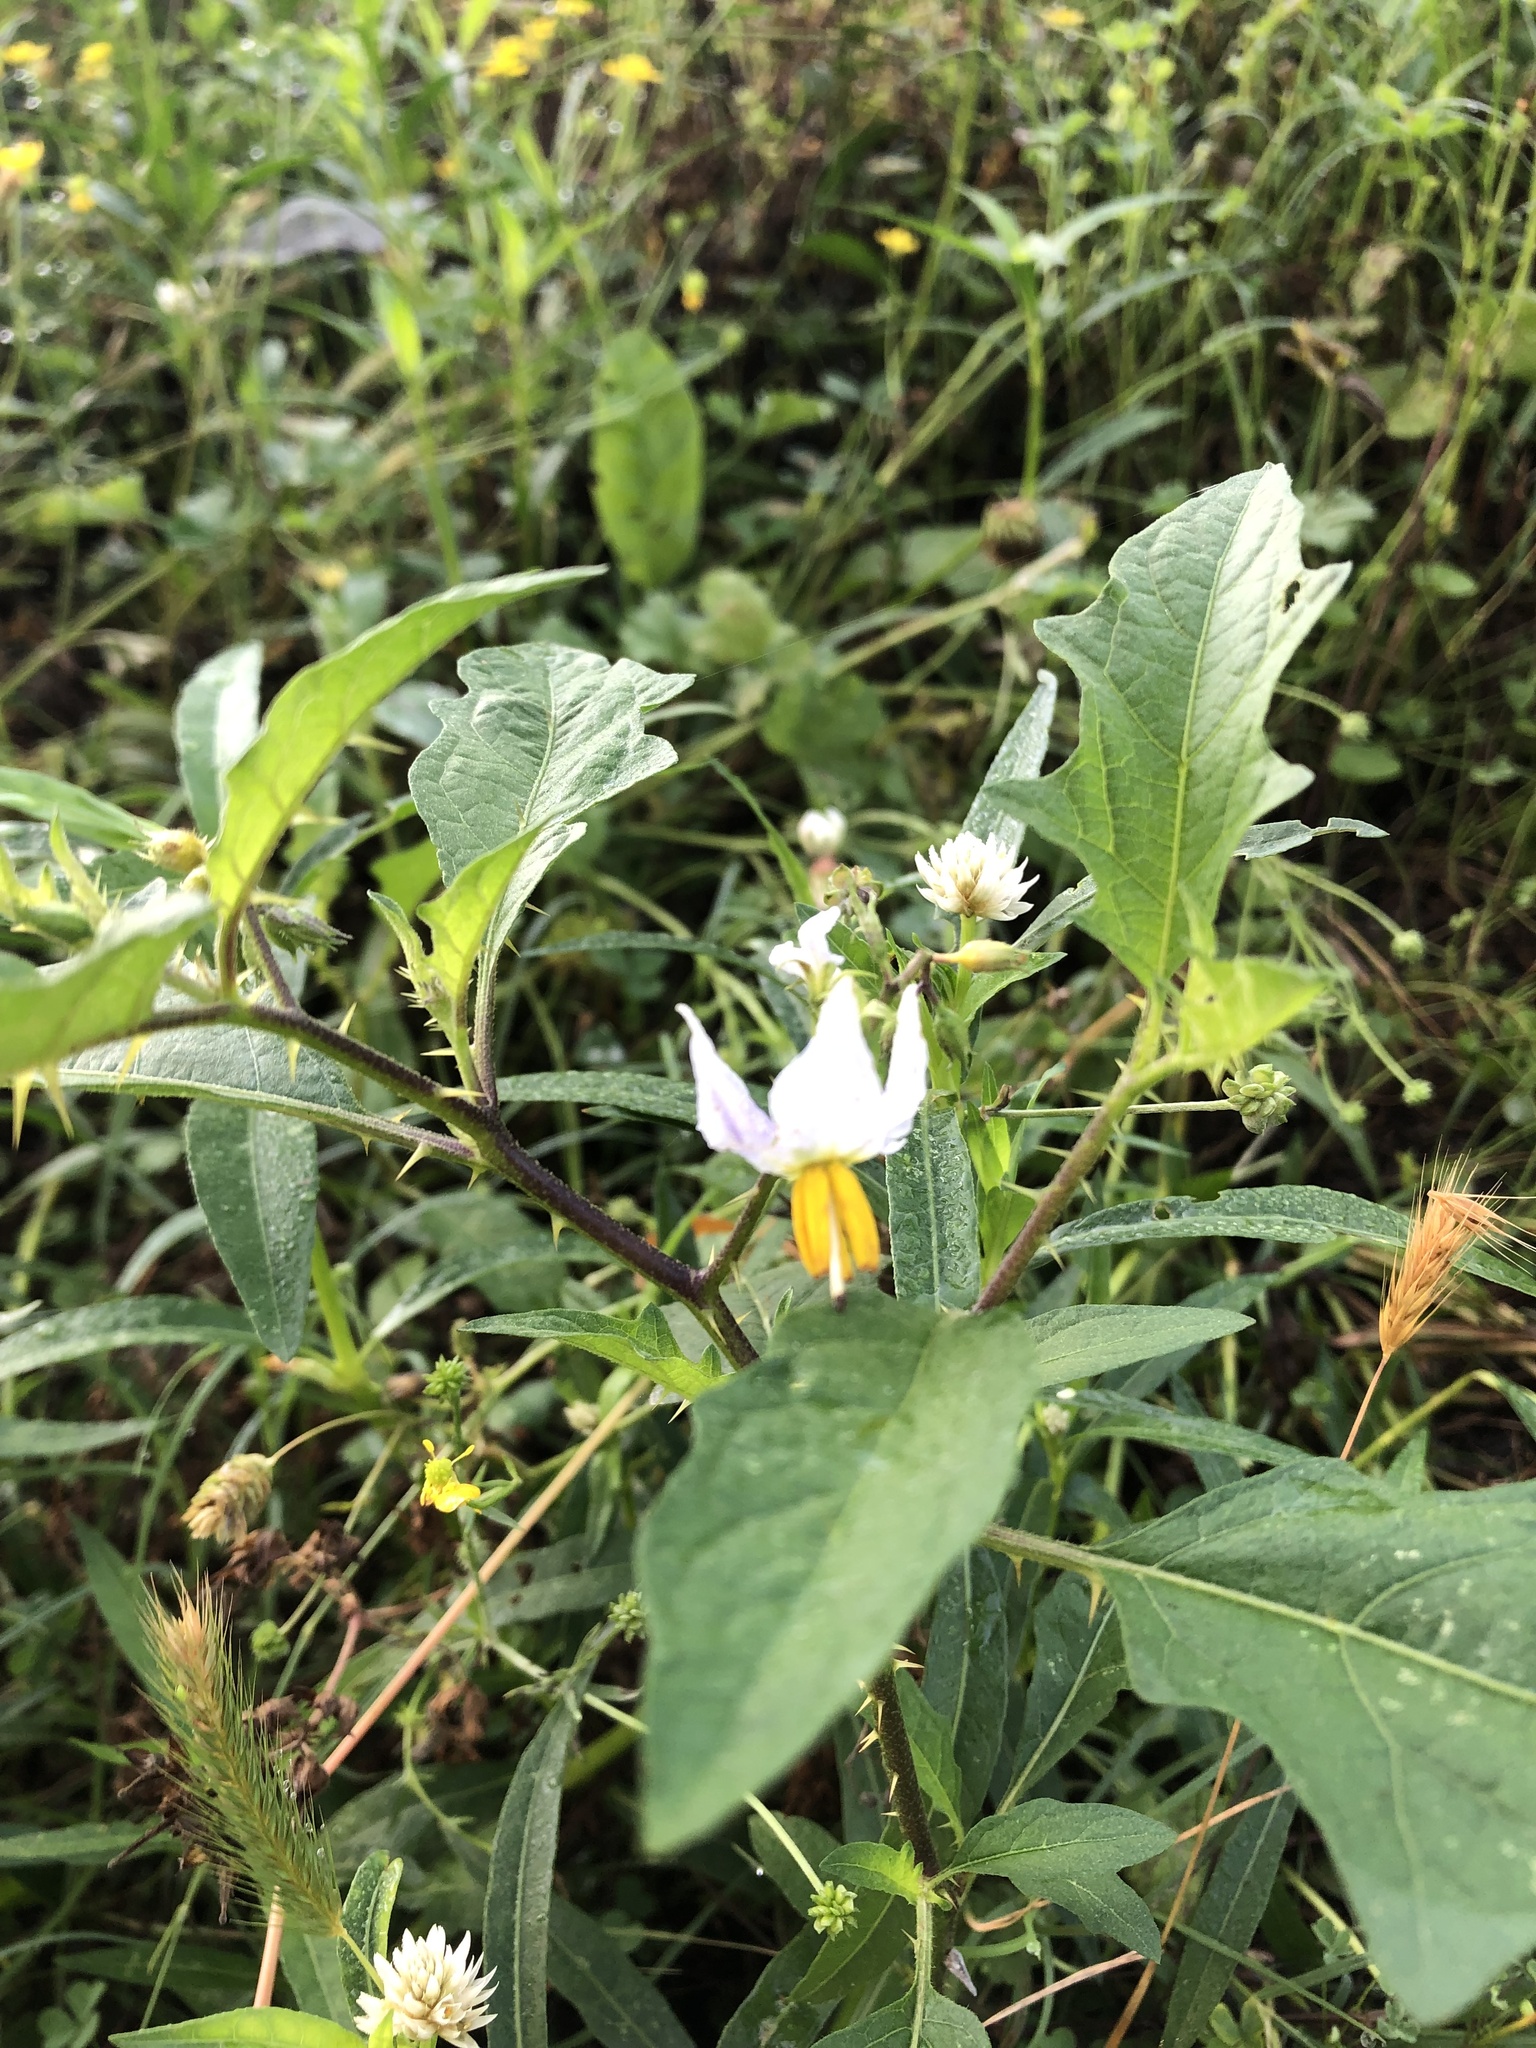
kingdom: Plantae
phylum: Tracheophyta
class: Magnoliopsida
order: Solanales
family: Solanaceae
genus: Solanum
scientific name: Solanum carolinense
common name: Horse-nettle
